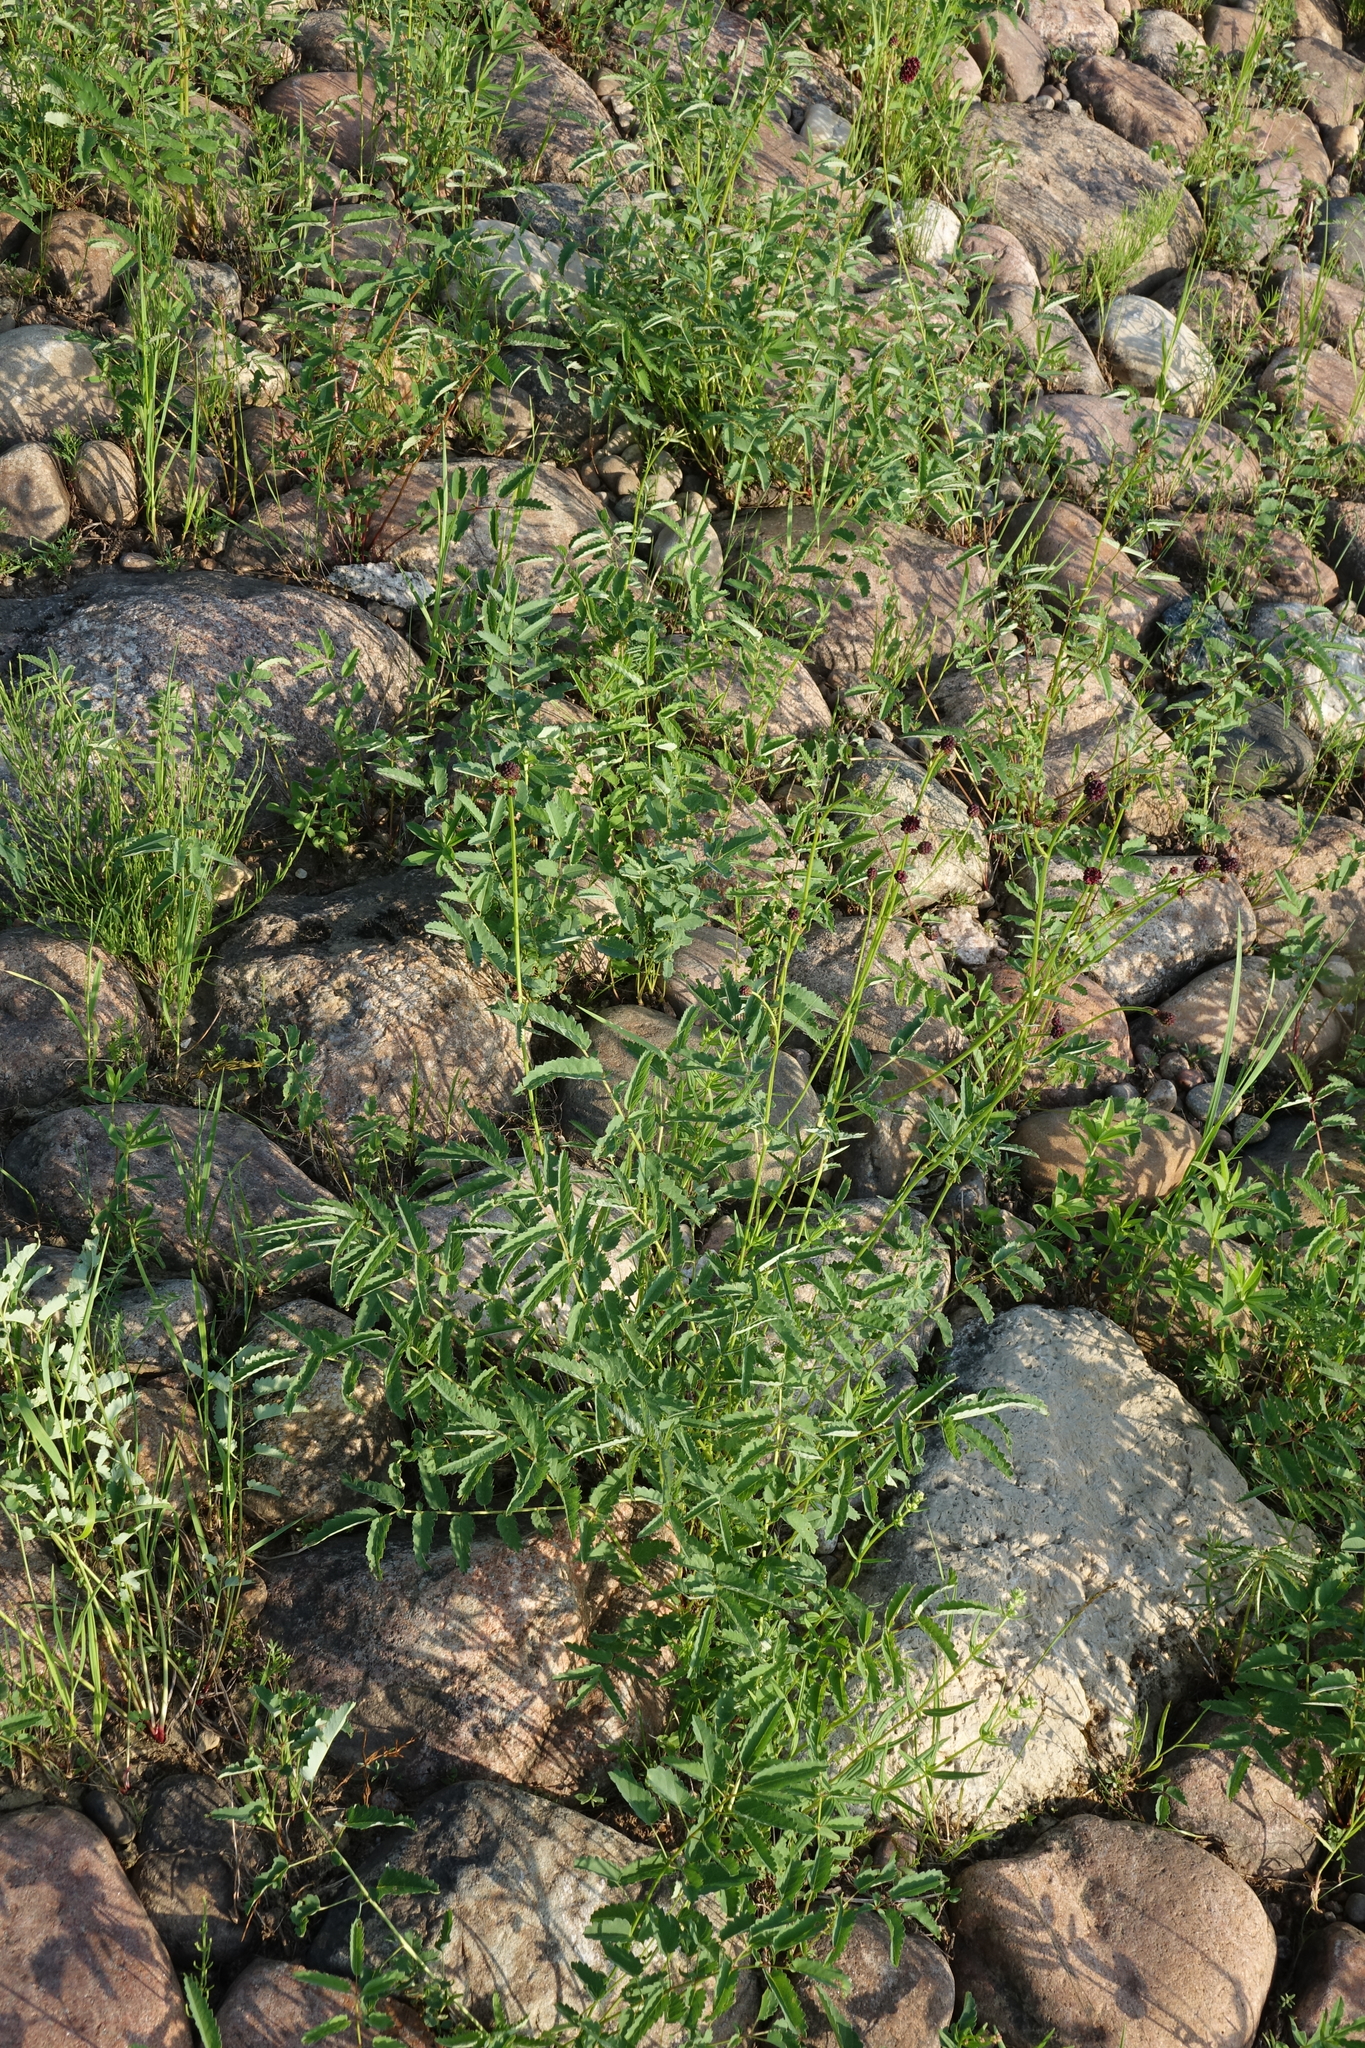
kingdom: Plantae
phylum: Tracheophyta
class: Magnoliopsida
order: Rosales
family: Rosaceae
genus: Sanguisorba
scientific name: Sanguisorba officinalis
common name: Great burnet
